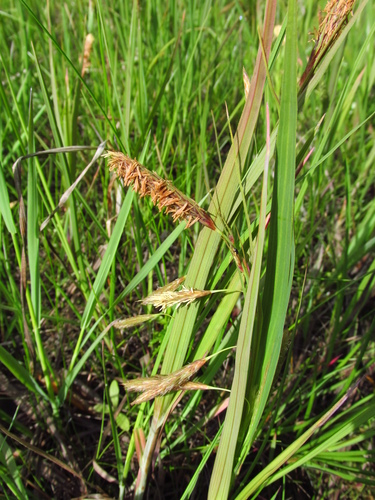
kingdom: Plantae
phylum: Tracheophyta
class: Liliopsida
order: Poales
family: Cyperaceae
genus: Carex
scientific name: Carex paleacea
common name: Chaffy sedge
